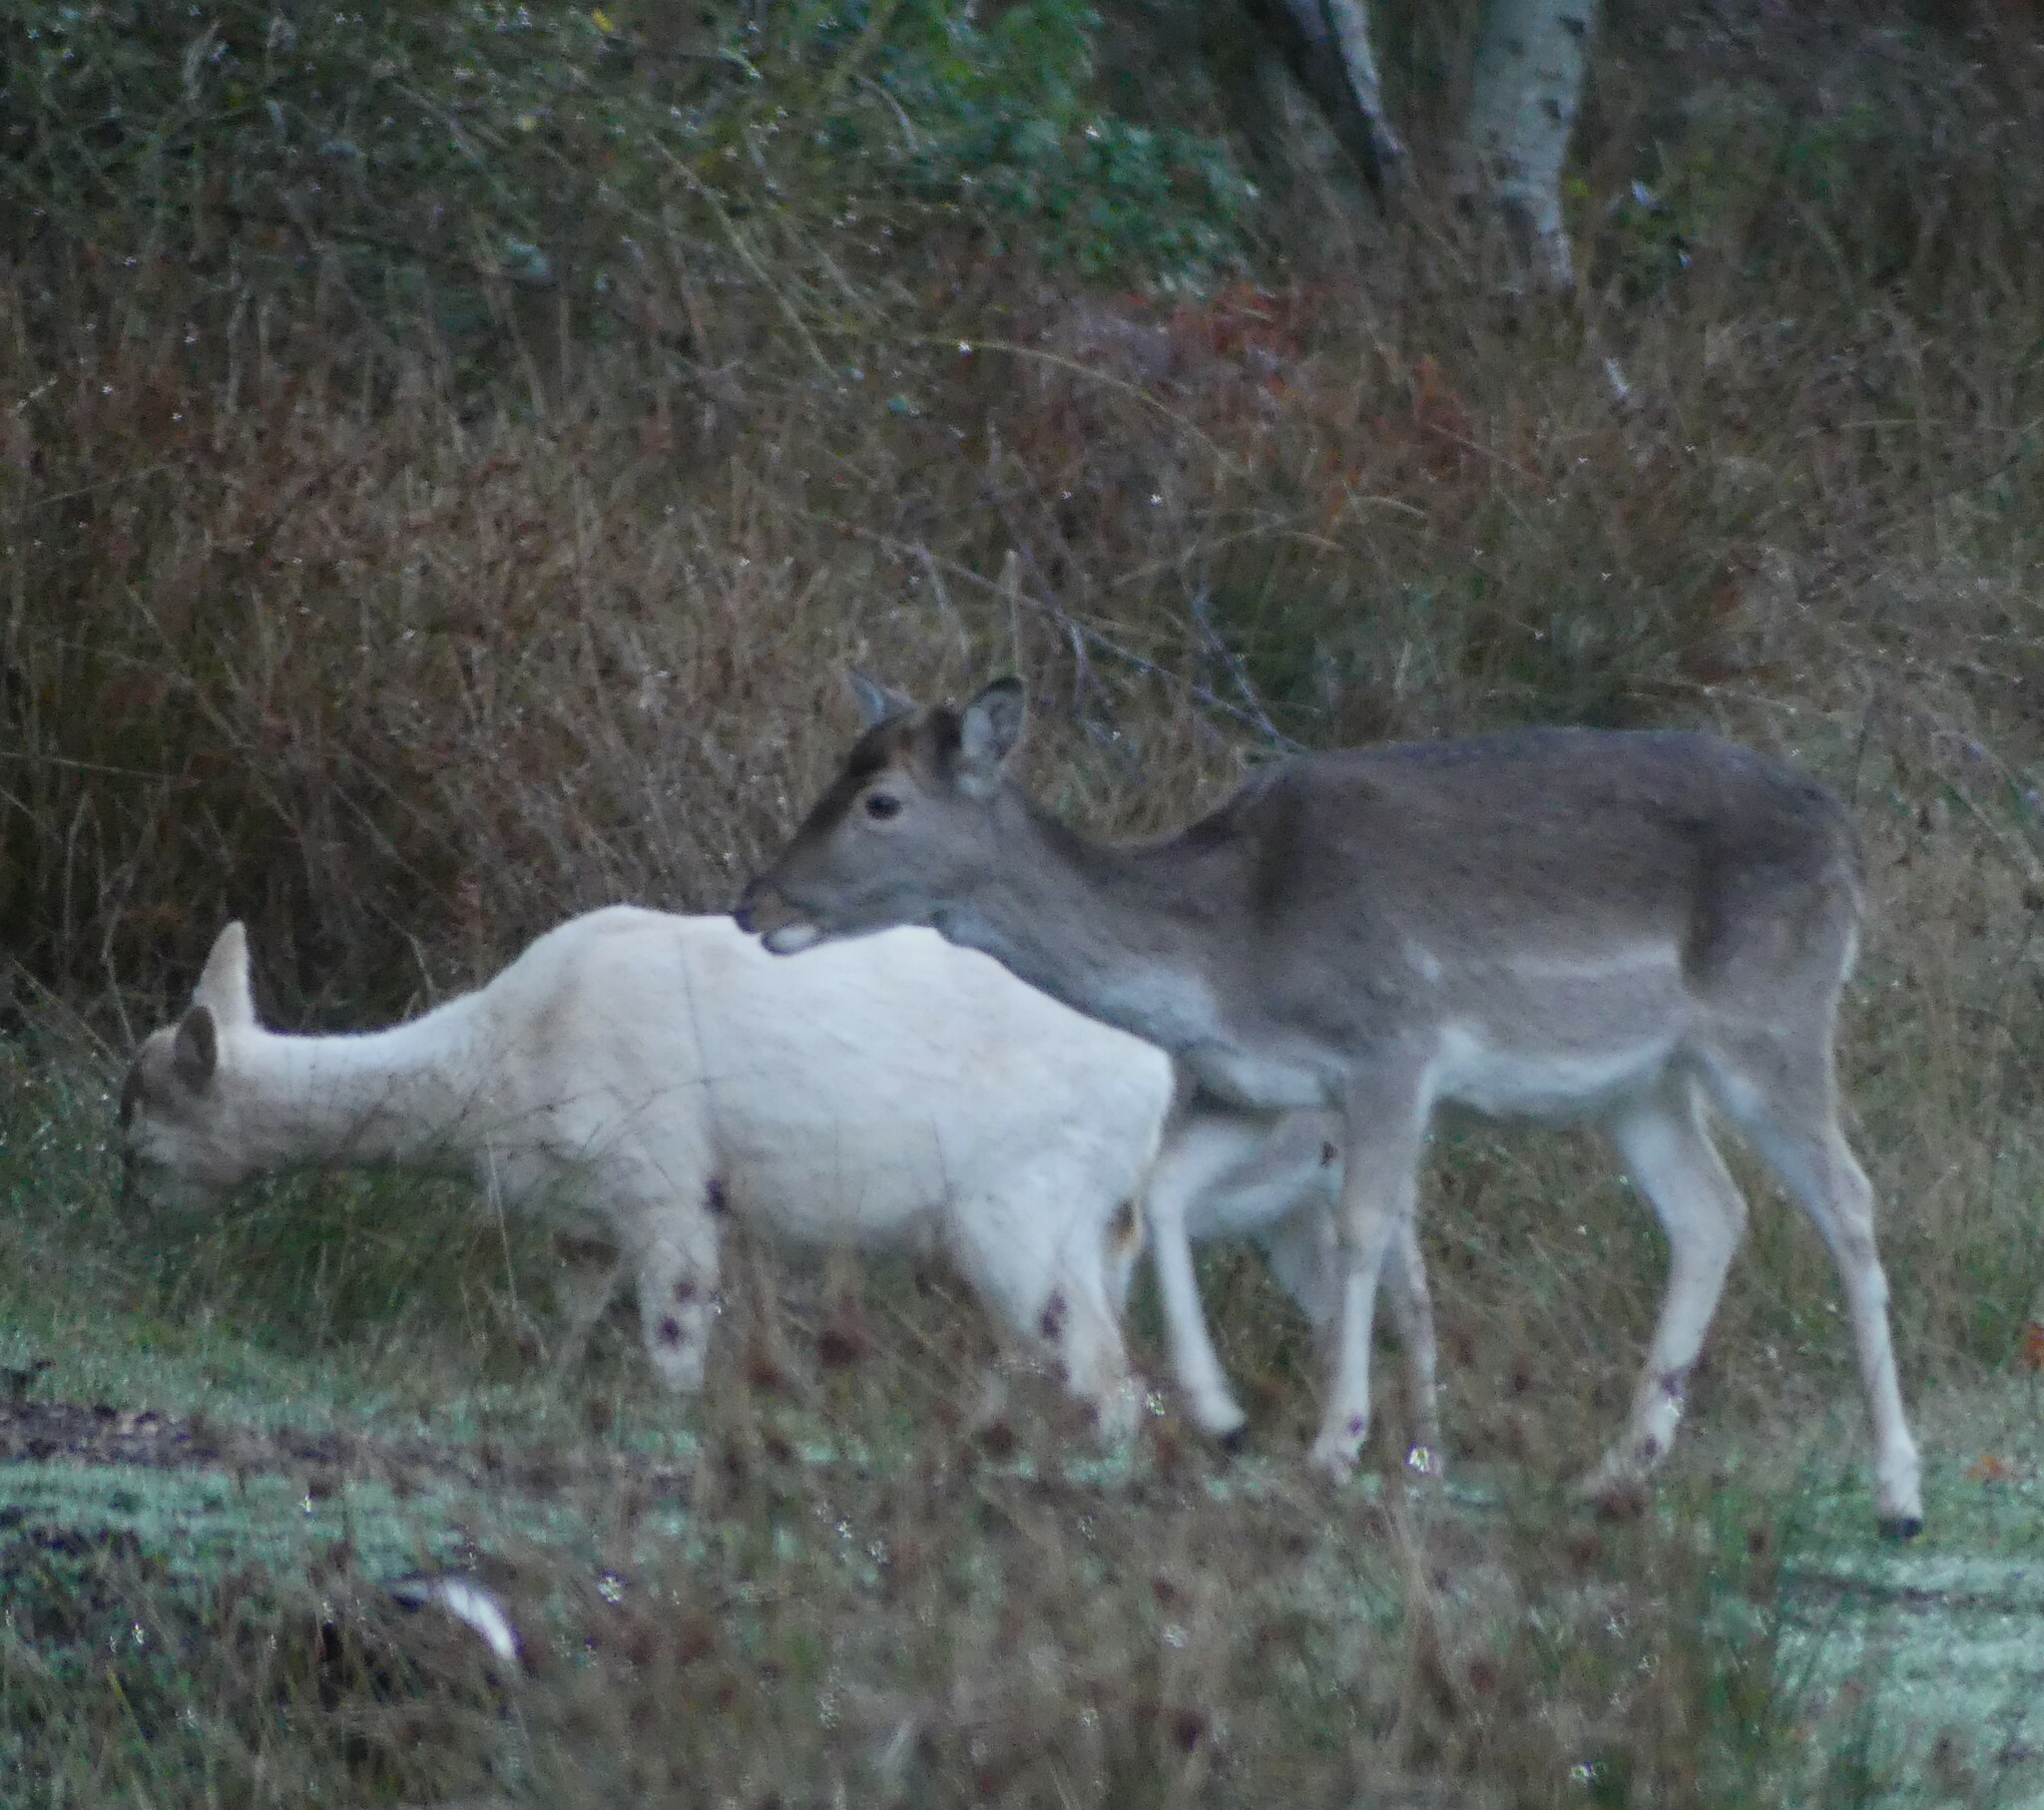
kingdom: Animalia
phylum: Chordata
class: Mammalia
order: Artiodactyla
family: Cervidae
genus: Dama
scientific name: Dama dama
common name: Fallow deer
